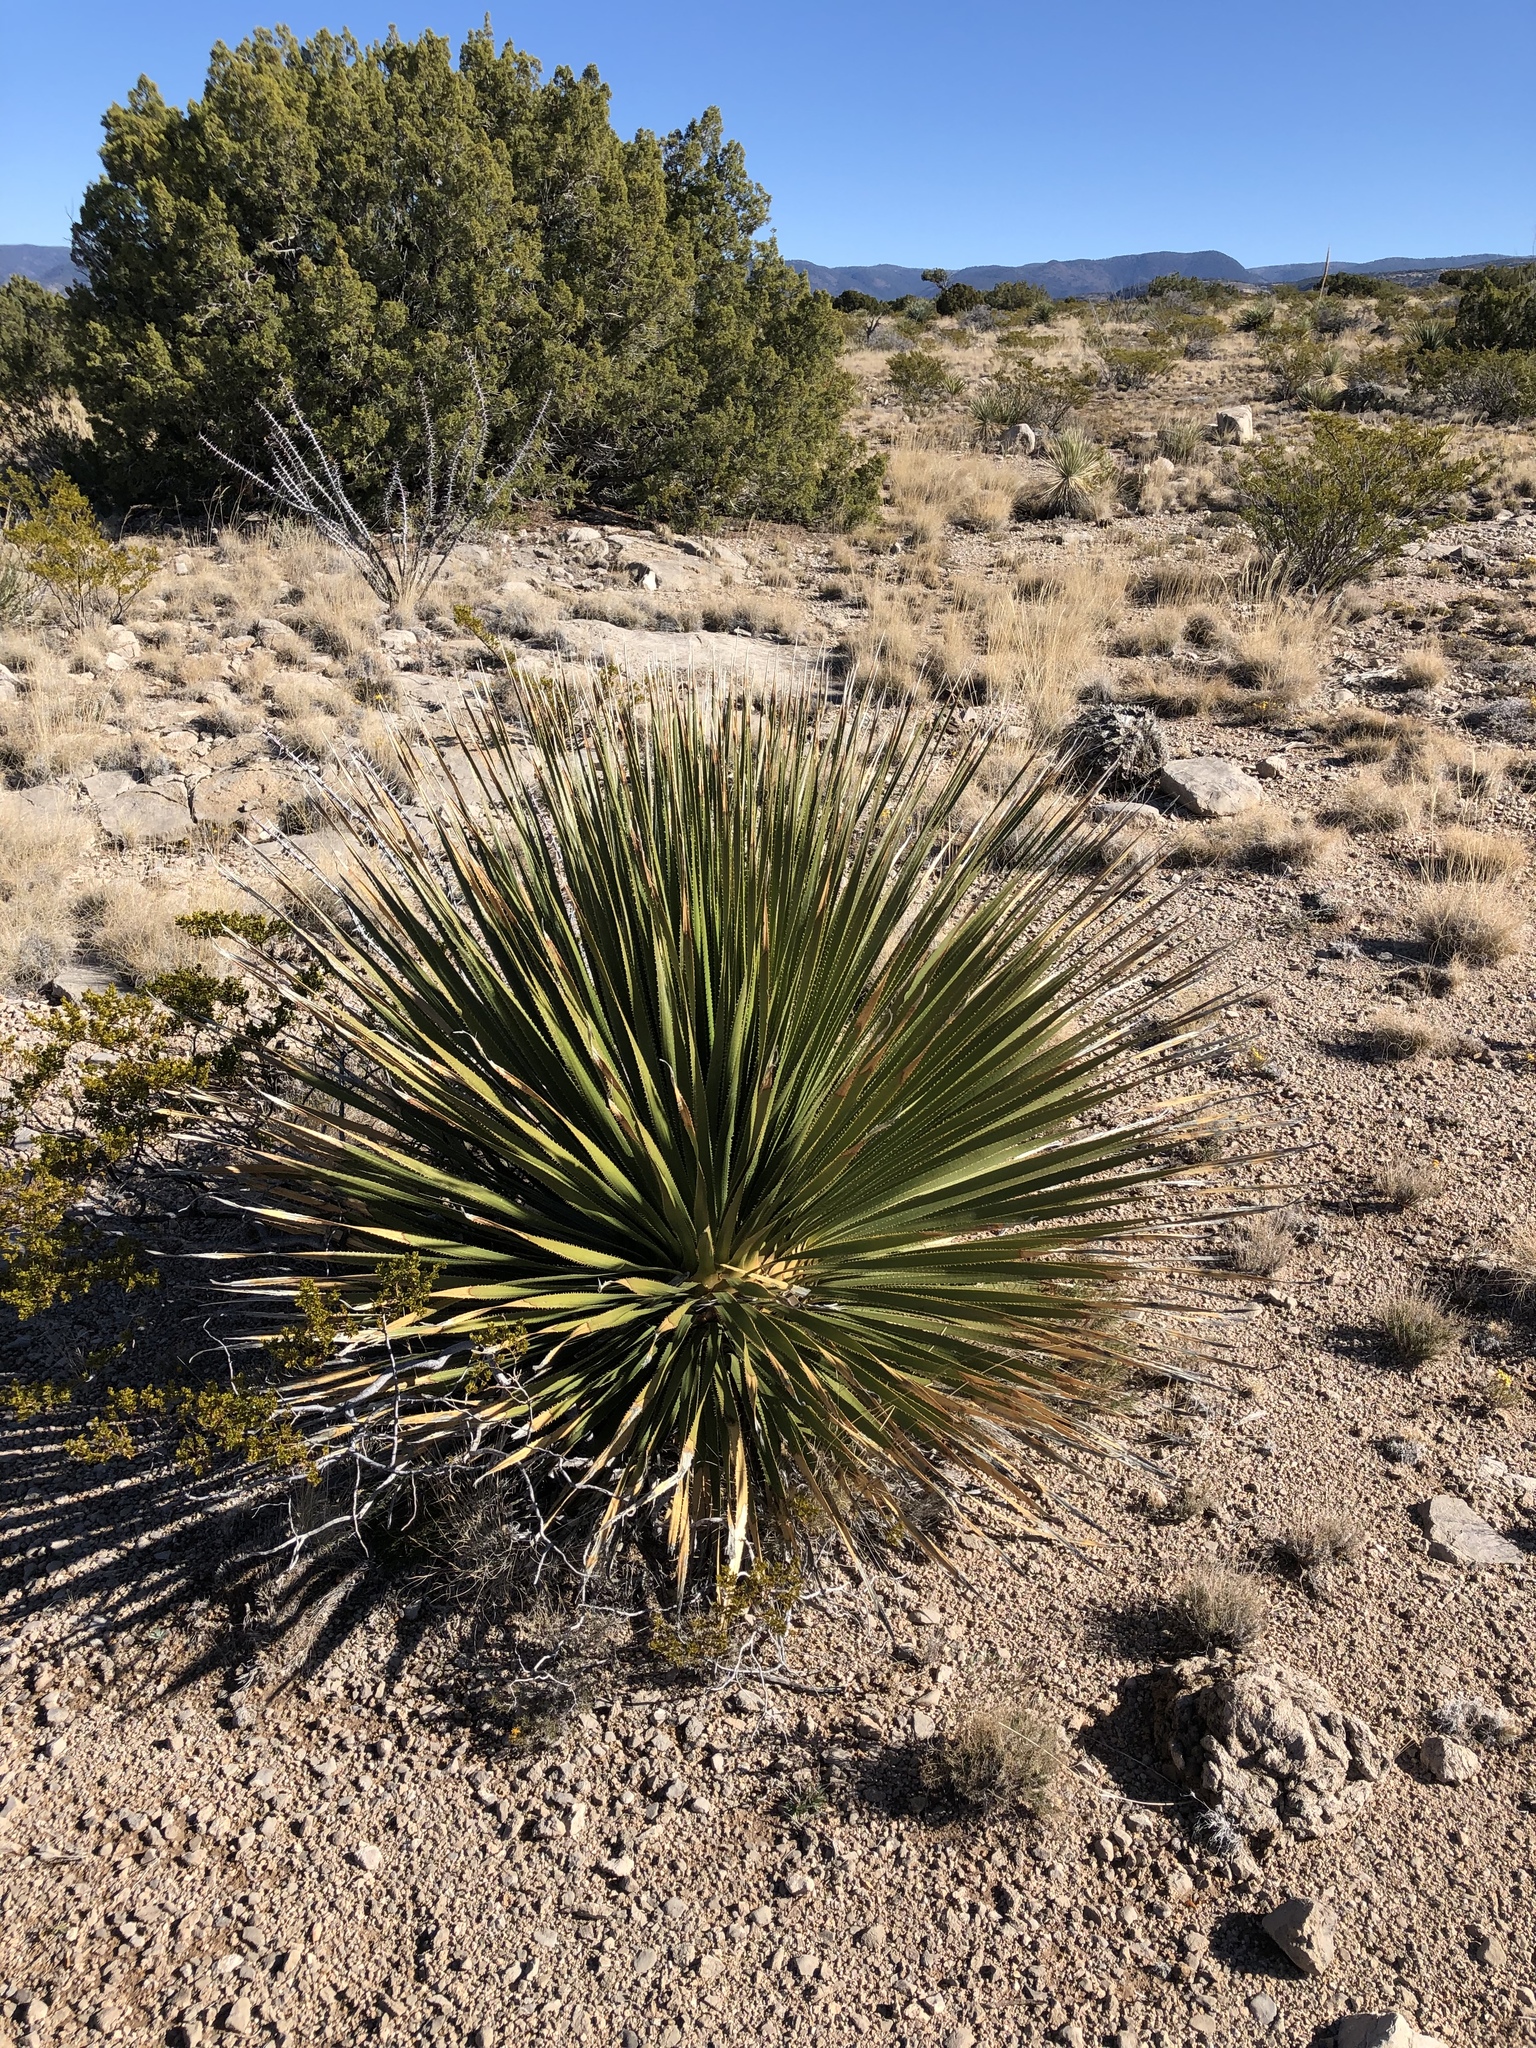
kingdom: Plantae
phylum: Tracheophyta
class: Liliopsida
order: Asparagales
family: Asparagaceae
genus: Dasylirion
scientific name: Dasylirion wheeleri
